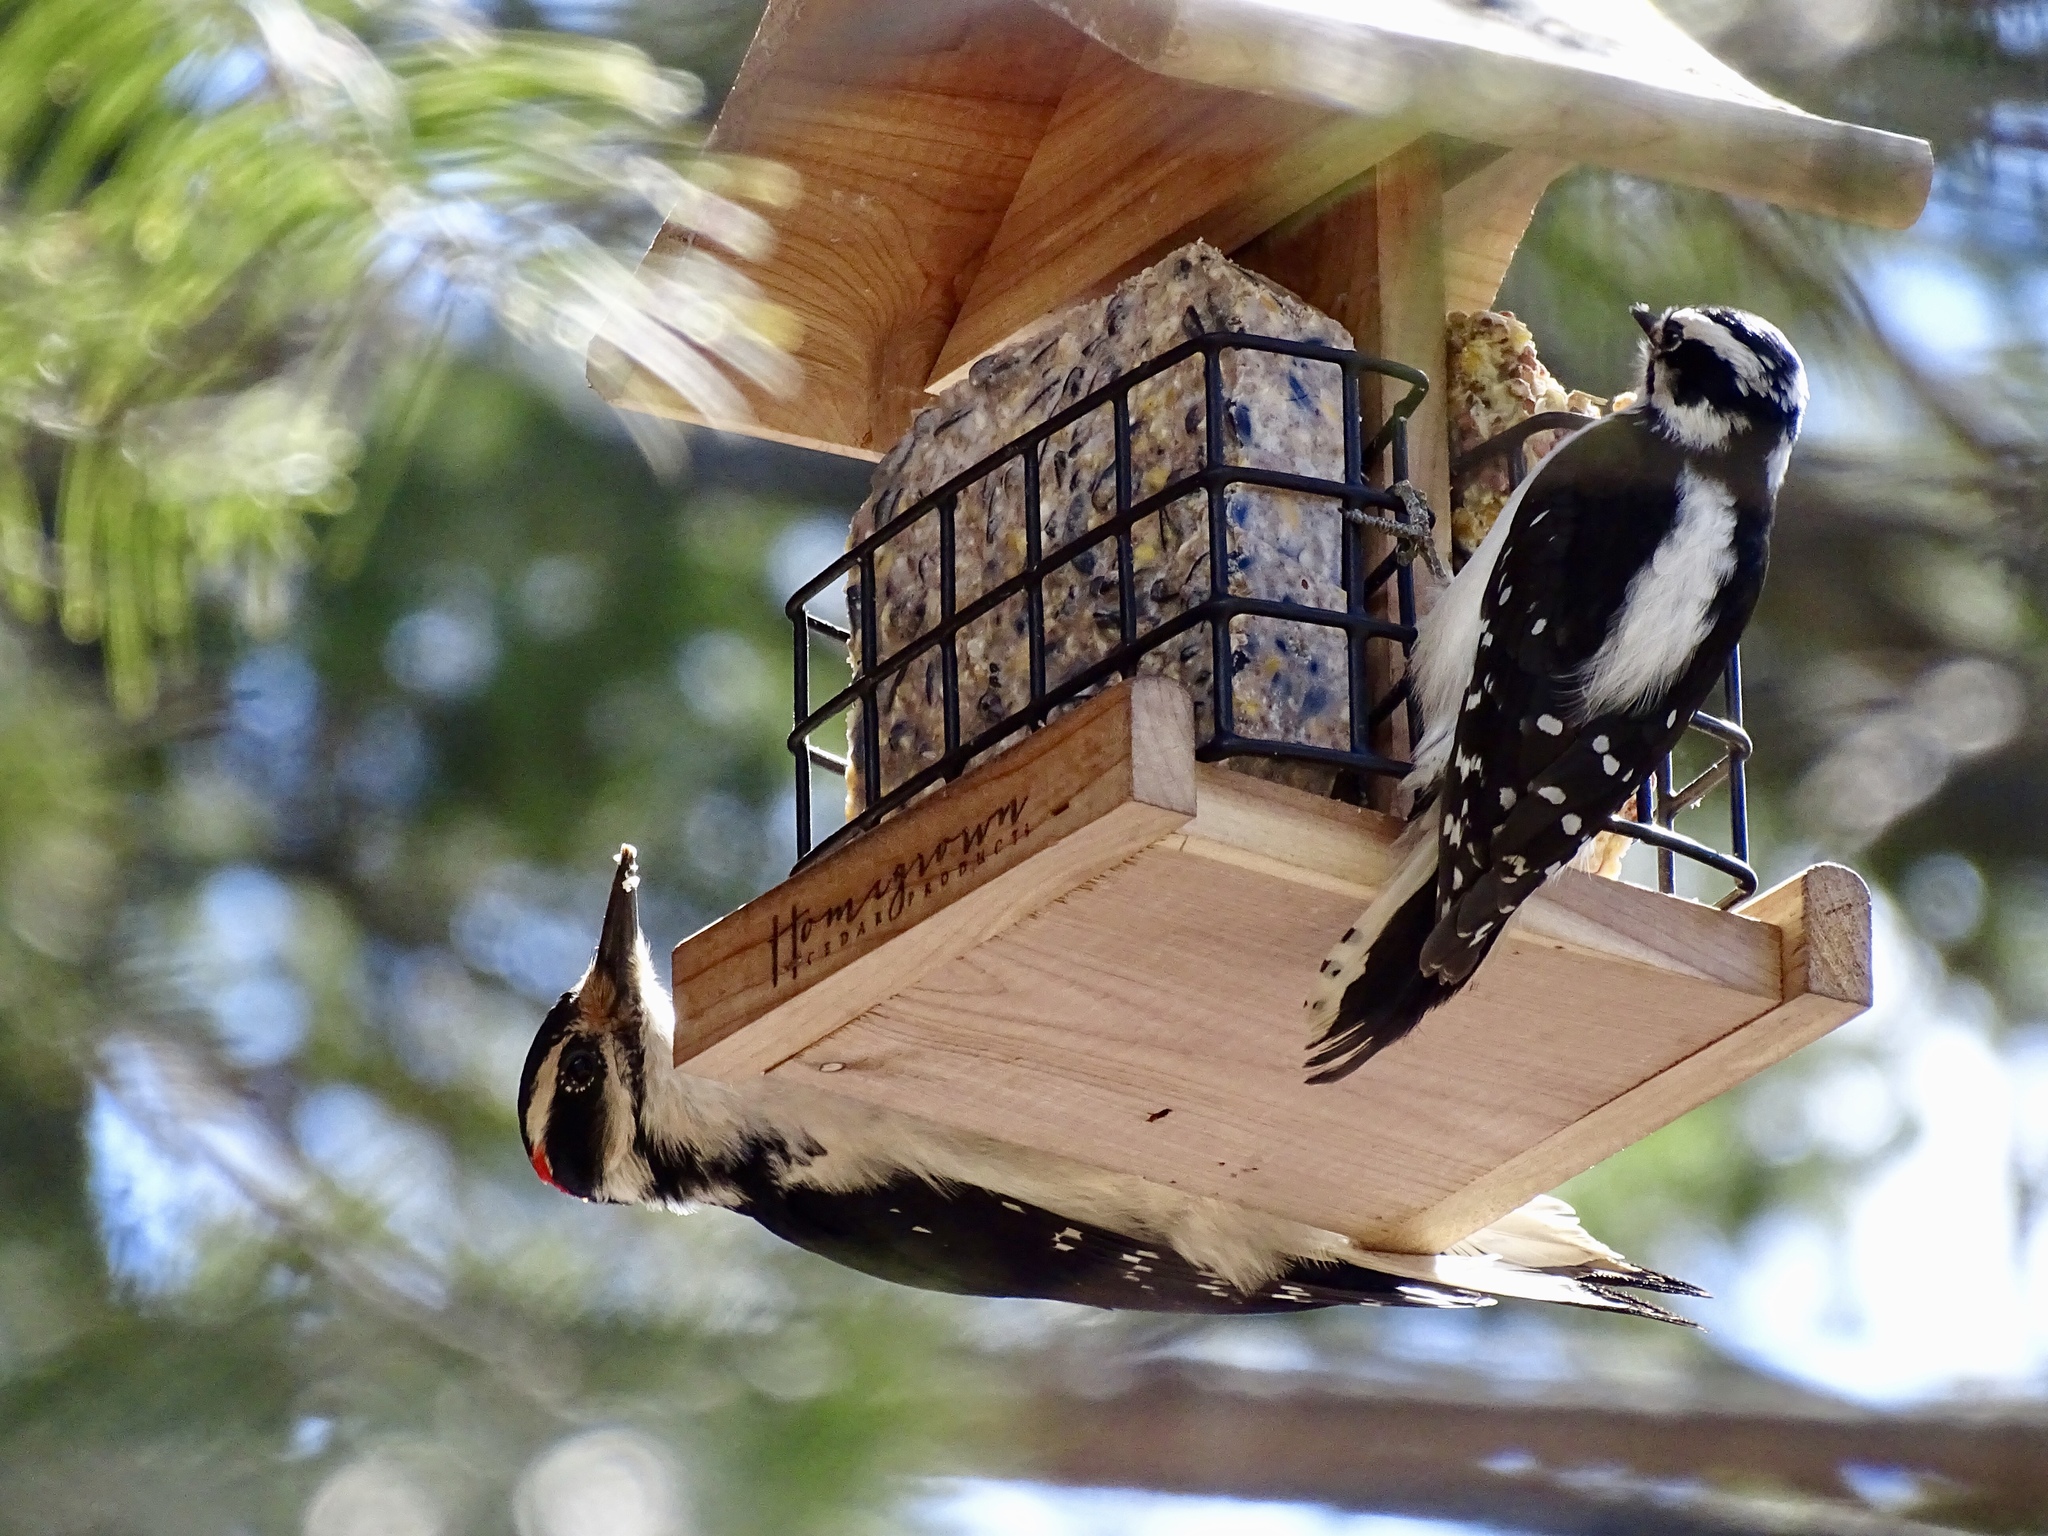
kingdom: Animalia
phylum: Chordata
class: Aves
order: Piciformes
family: Picidae
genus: Leuconotopicus
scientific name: Leuconotopicus villosus
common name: Hairy woodpecker
